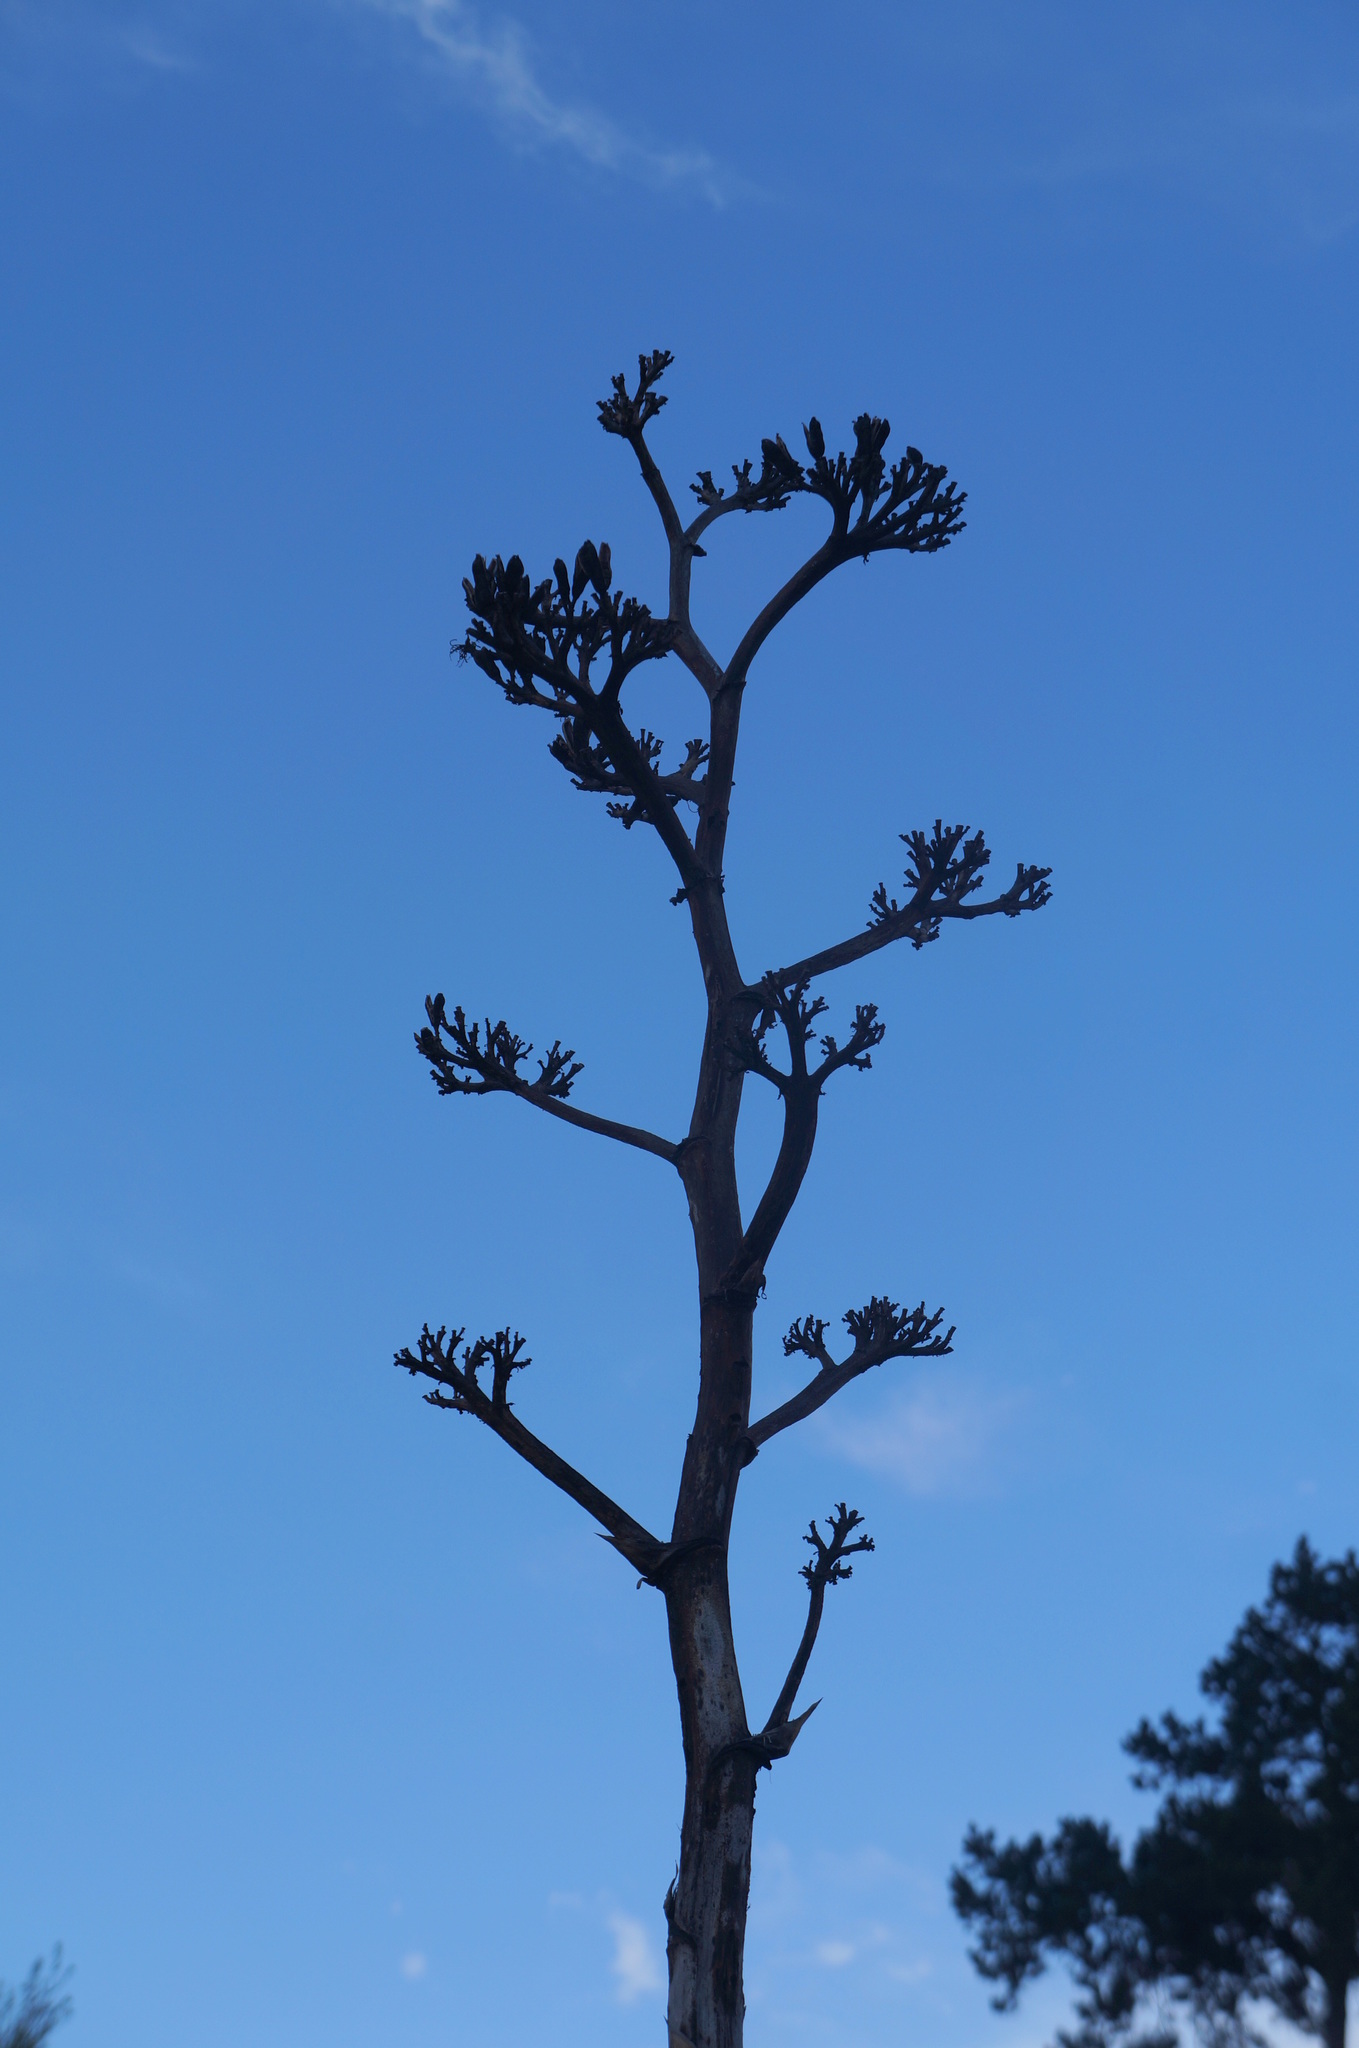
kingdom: Plantae
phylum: Tracheophyta
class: Liliopsida
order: Asparagales
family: Asparagaceae
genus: Agave
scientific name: Agave havardiana
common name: Havard agave
